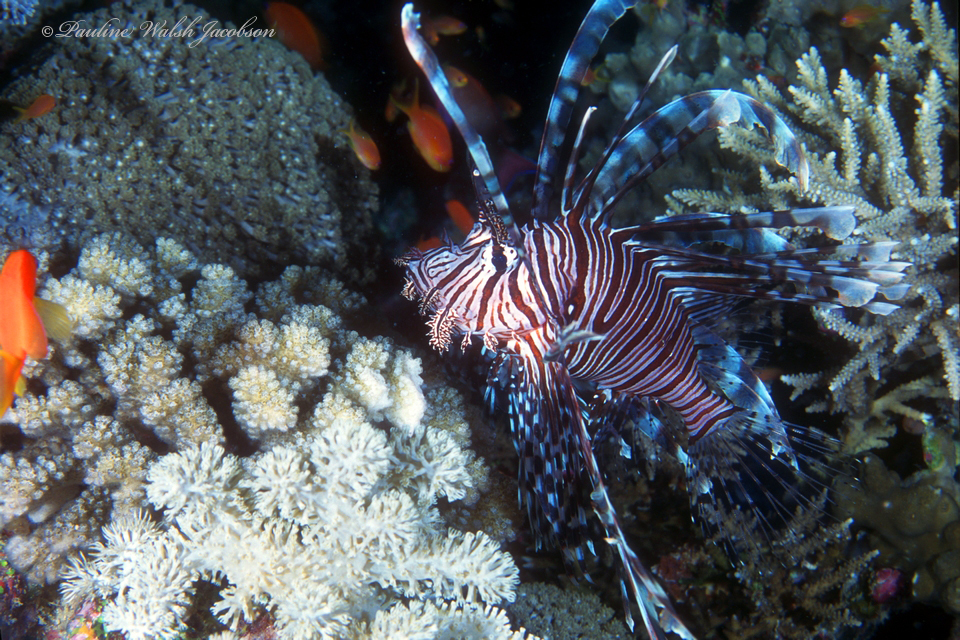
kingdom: Animalia
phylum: Chordata
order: Scorpaeniformes
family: Scorpaenidae
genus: Pterois
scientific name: Pterois volitans
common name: Lionfish
